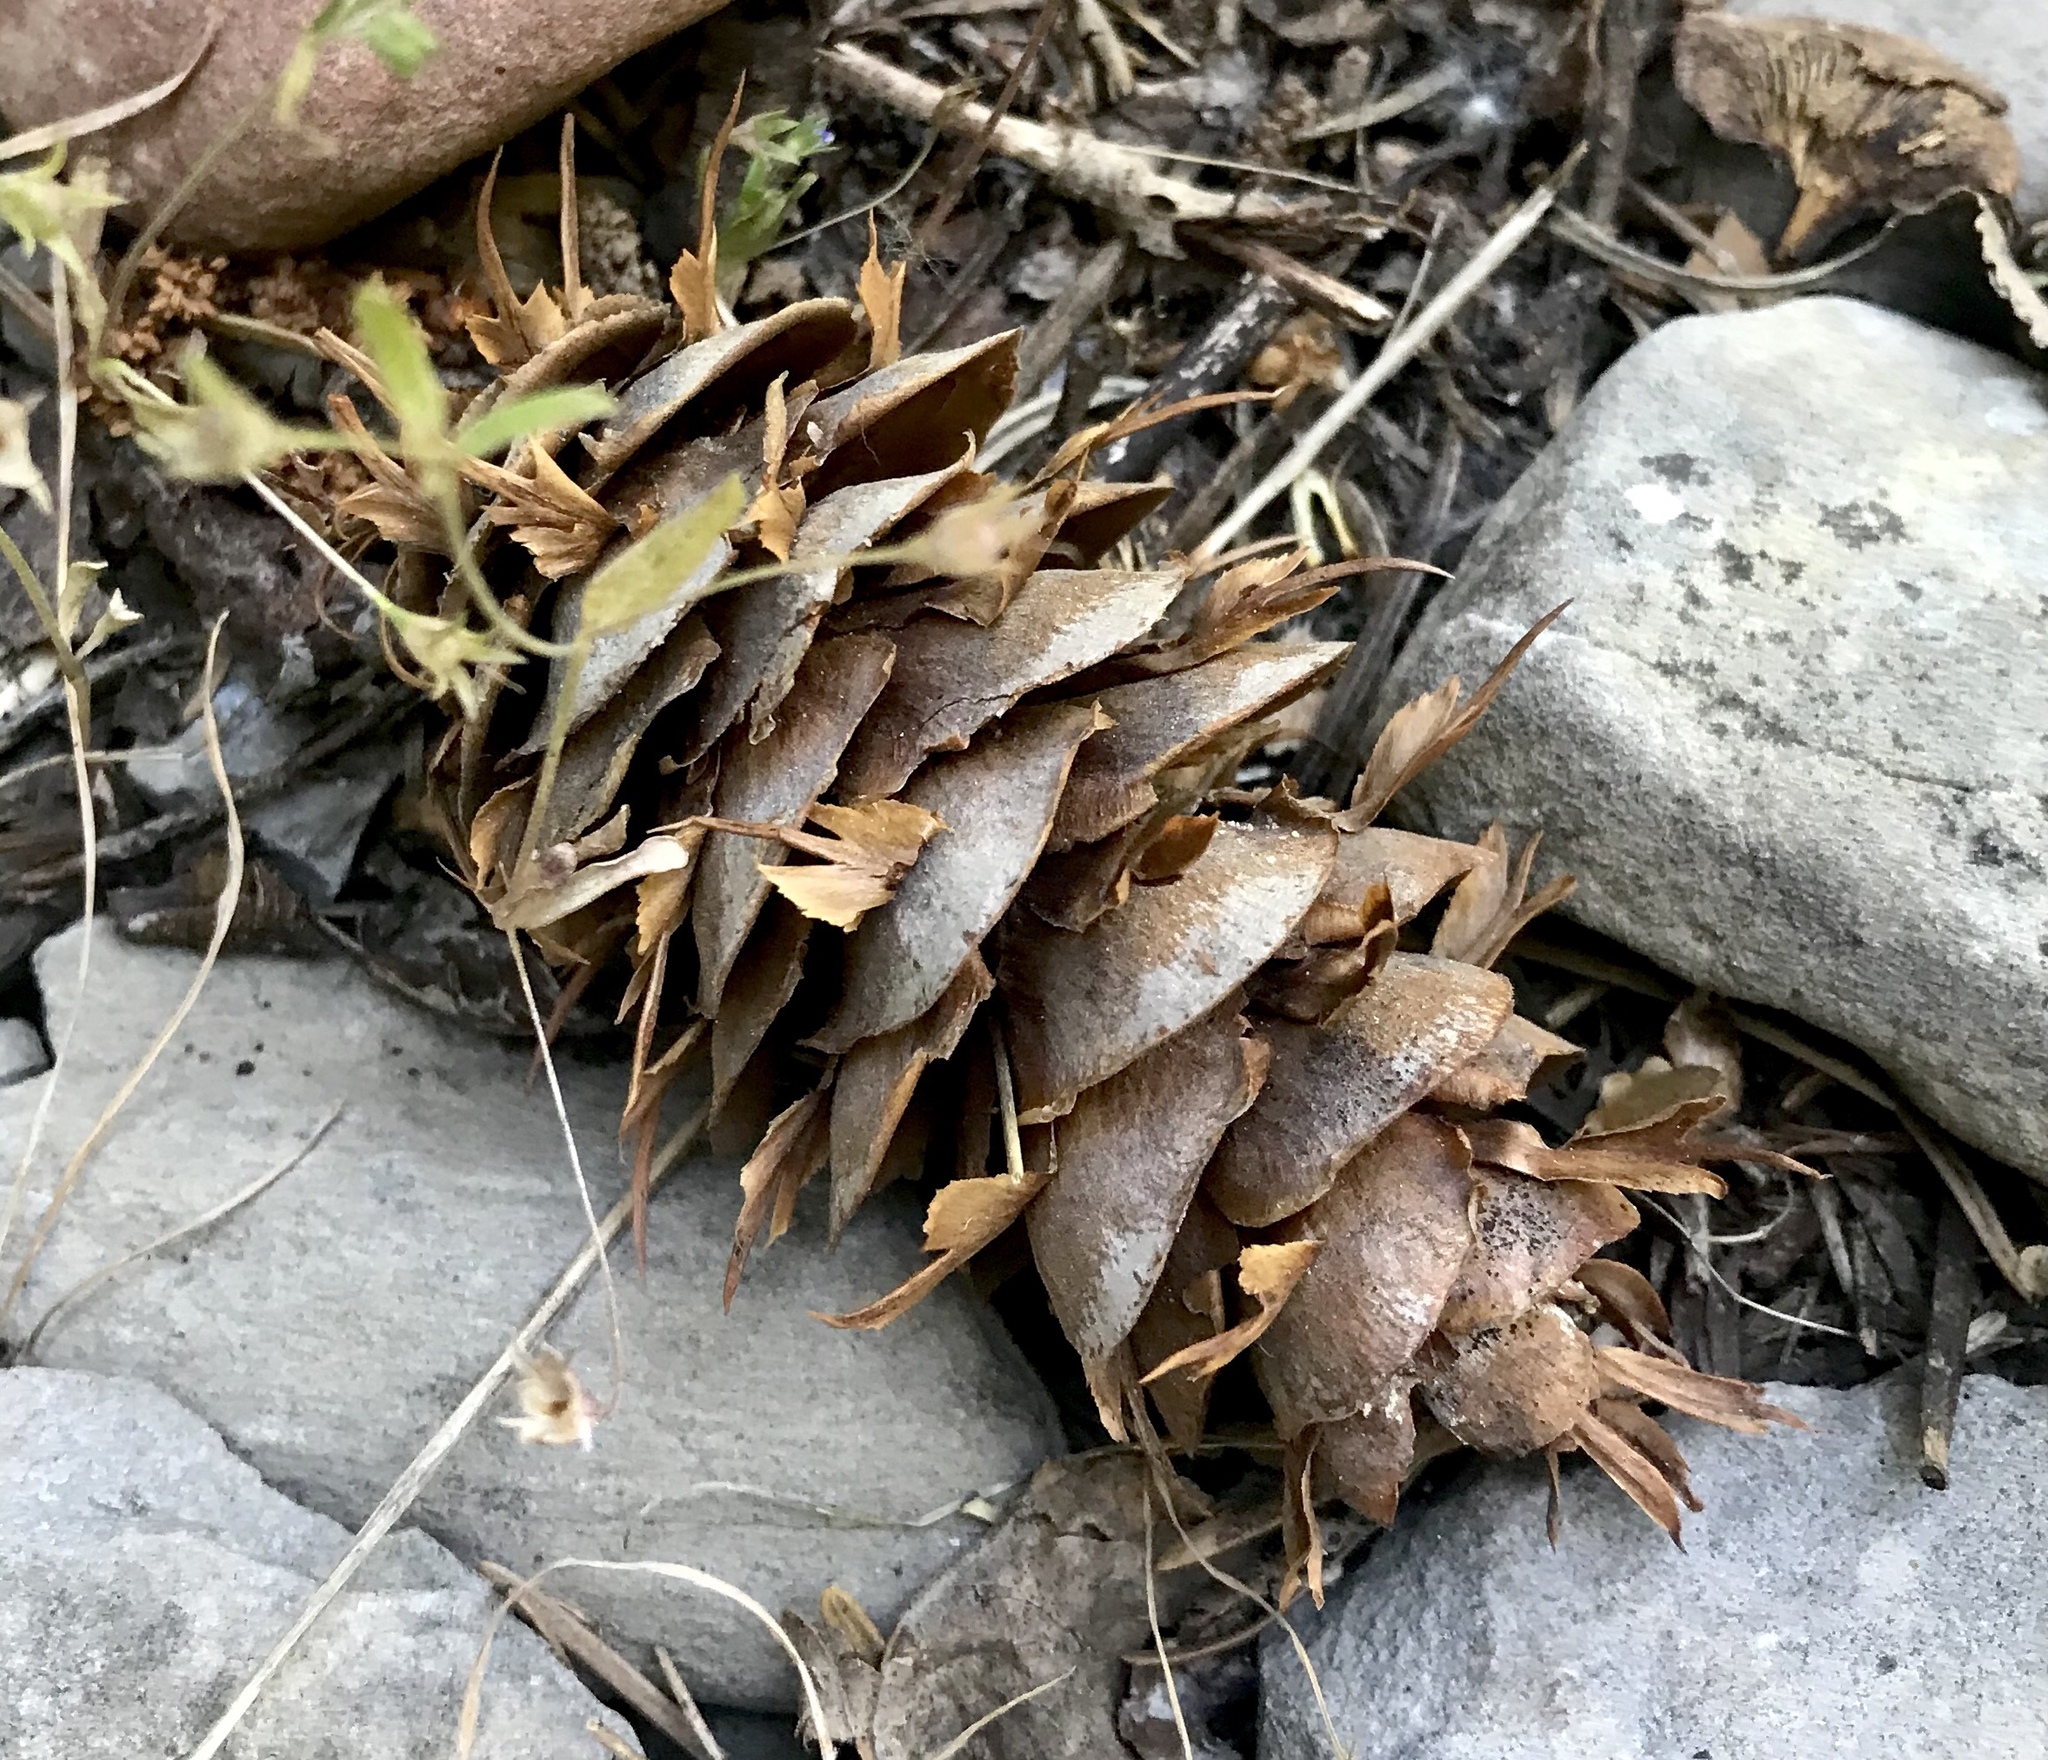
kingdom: Plantae
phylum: Tracheophyta
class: Pinopsida
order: Pinales
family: Pinaceae
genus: Pseudotsuga
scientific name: Pseudotsuga menziesii
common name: Douglas fir
